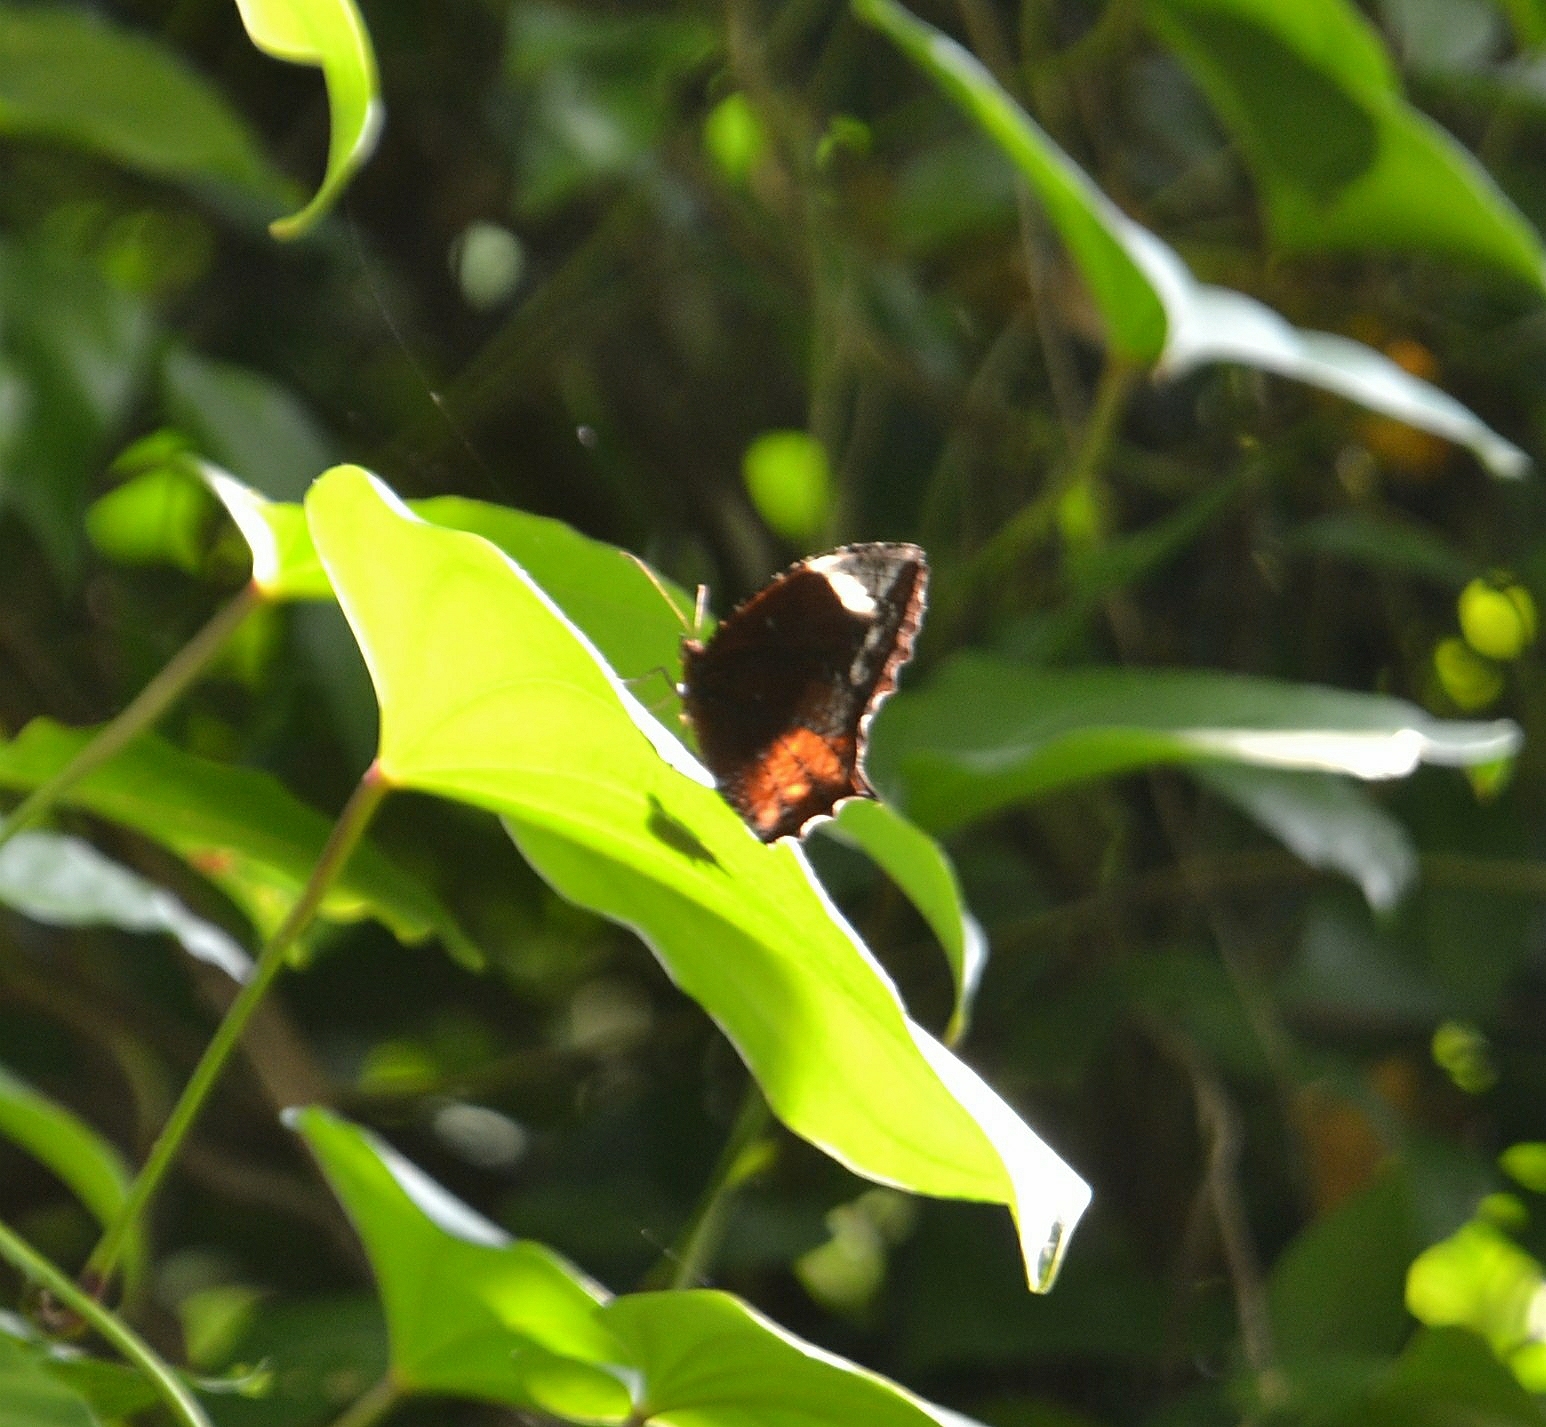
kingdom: Animalia
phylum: Arthropoda
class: Insecta
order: Lepidoptera
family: Nymphalidae
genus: Elymnias
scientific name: Elymnias caudata
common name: Tailed palmfly
